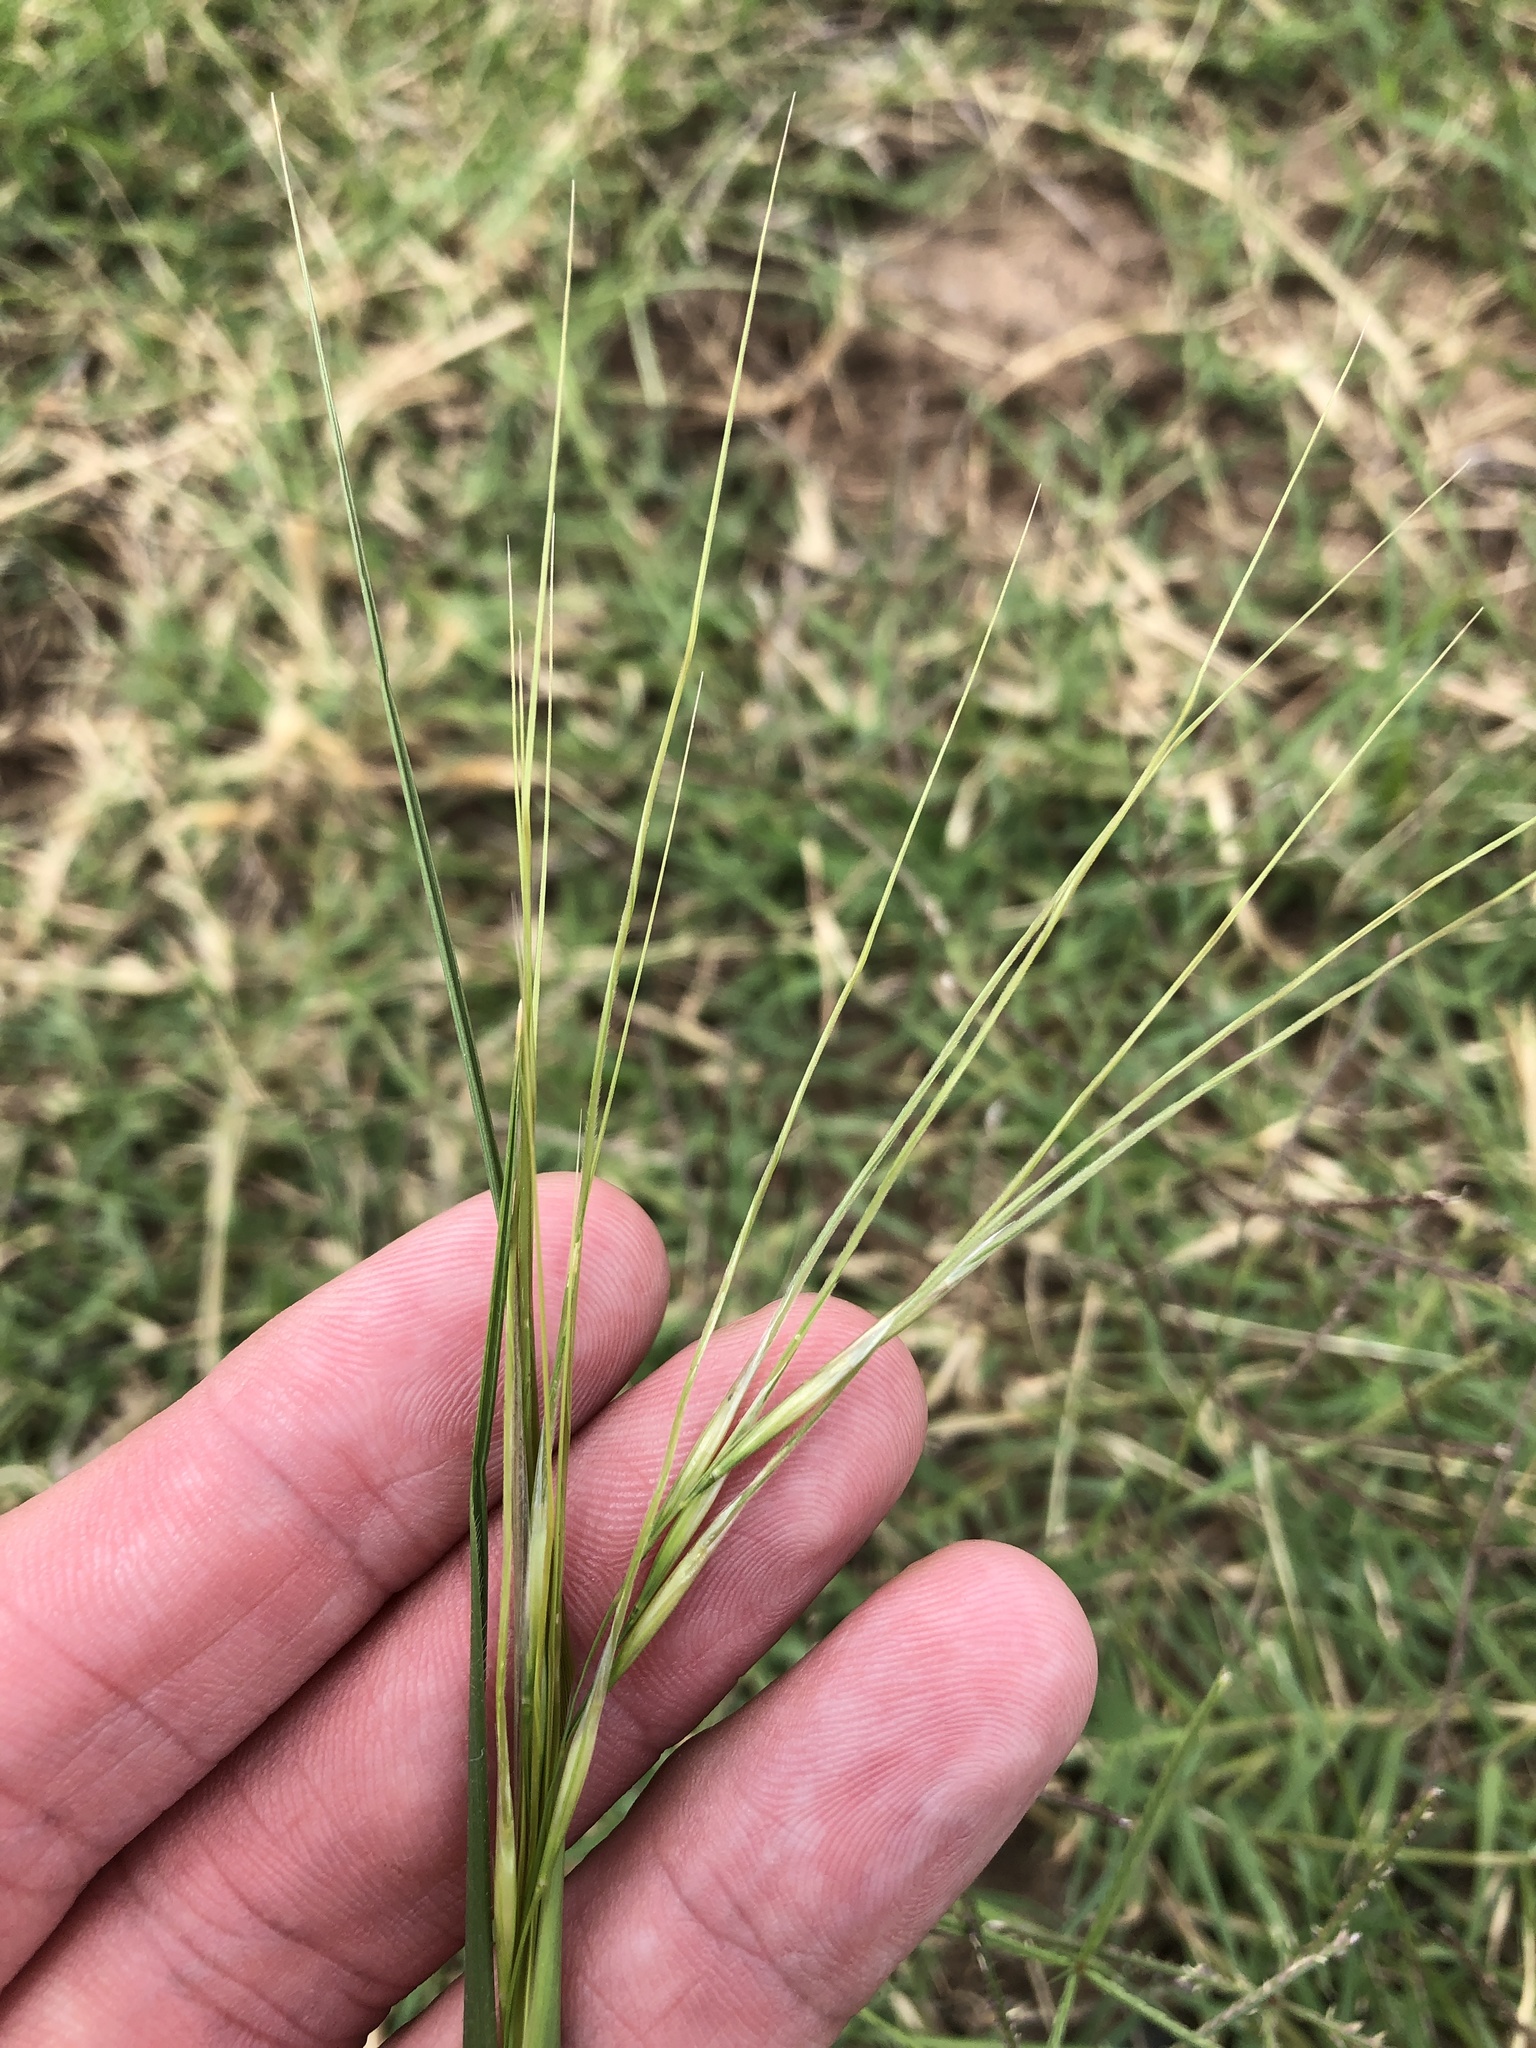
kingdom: Plantae
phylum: Tracheophyta
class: Liliopsida
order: Poales
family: Poaceae
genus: Nassella
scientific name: Nassella leucotricha
